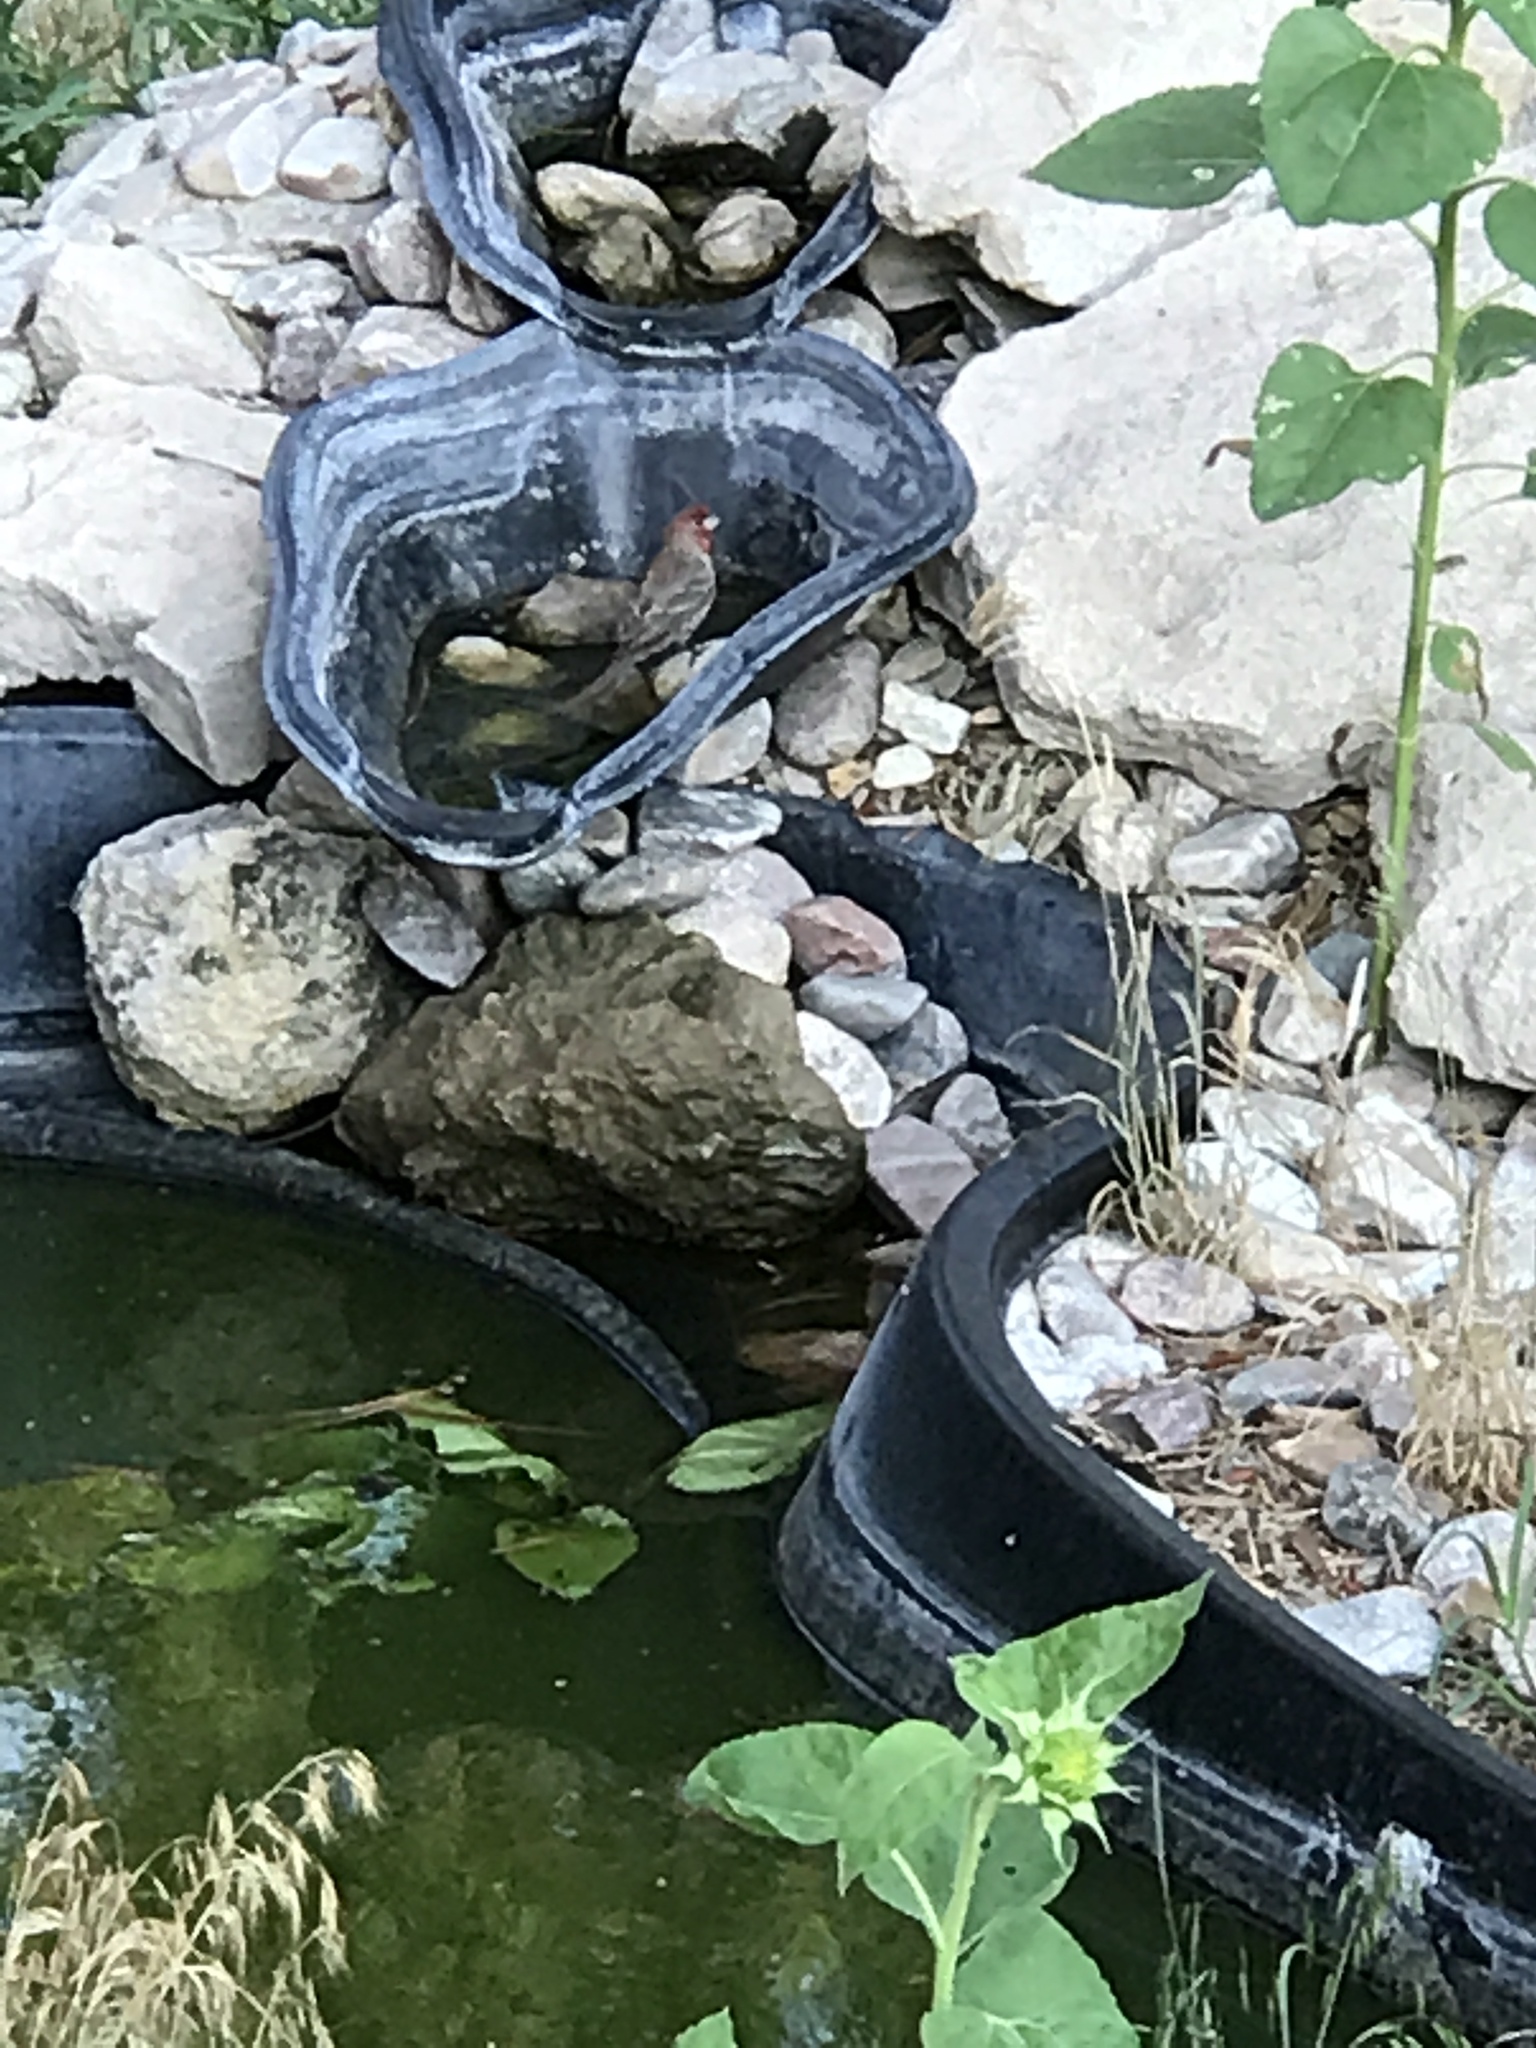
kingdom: Animalia
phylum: Chordata
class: Aves
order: Passeriformes
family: Fringillidae
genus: Haemorhous
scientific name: Haemorhous mexicanus
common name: House finch
